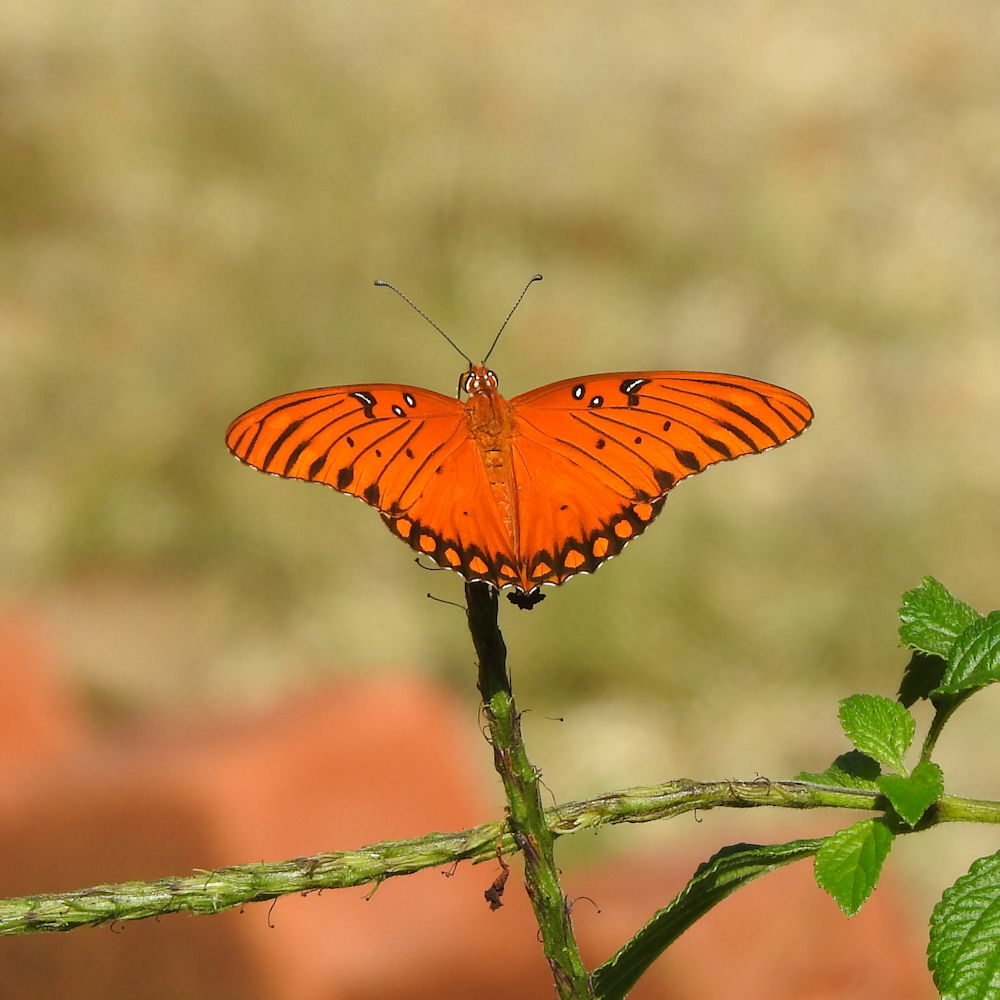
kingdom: Animalia
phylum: Arthropoda
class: Insecta
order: Lepidoptera
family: Nymphalidae
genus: Dione
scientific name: Dione vanillae
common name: Gulf fritillary
